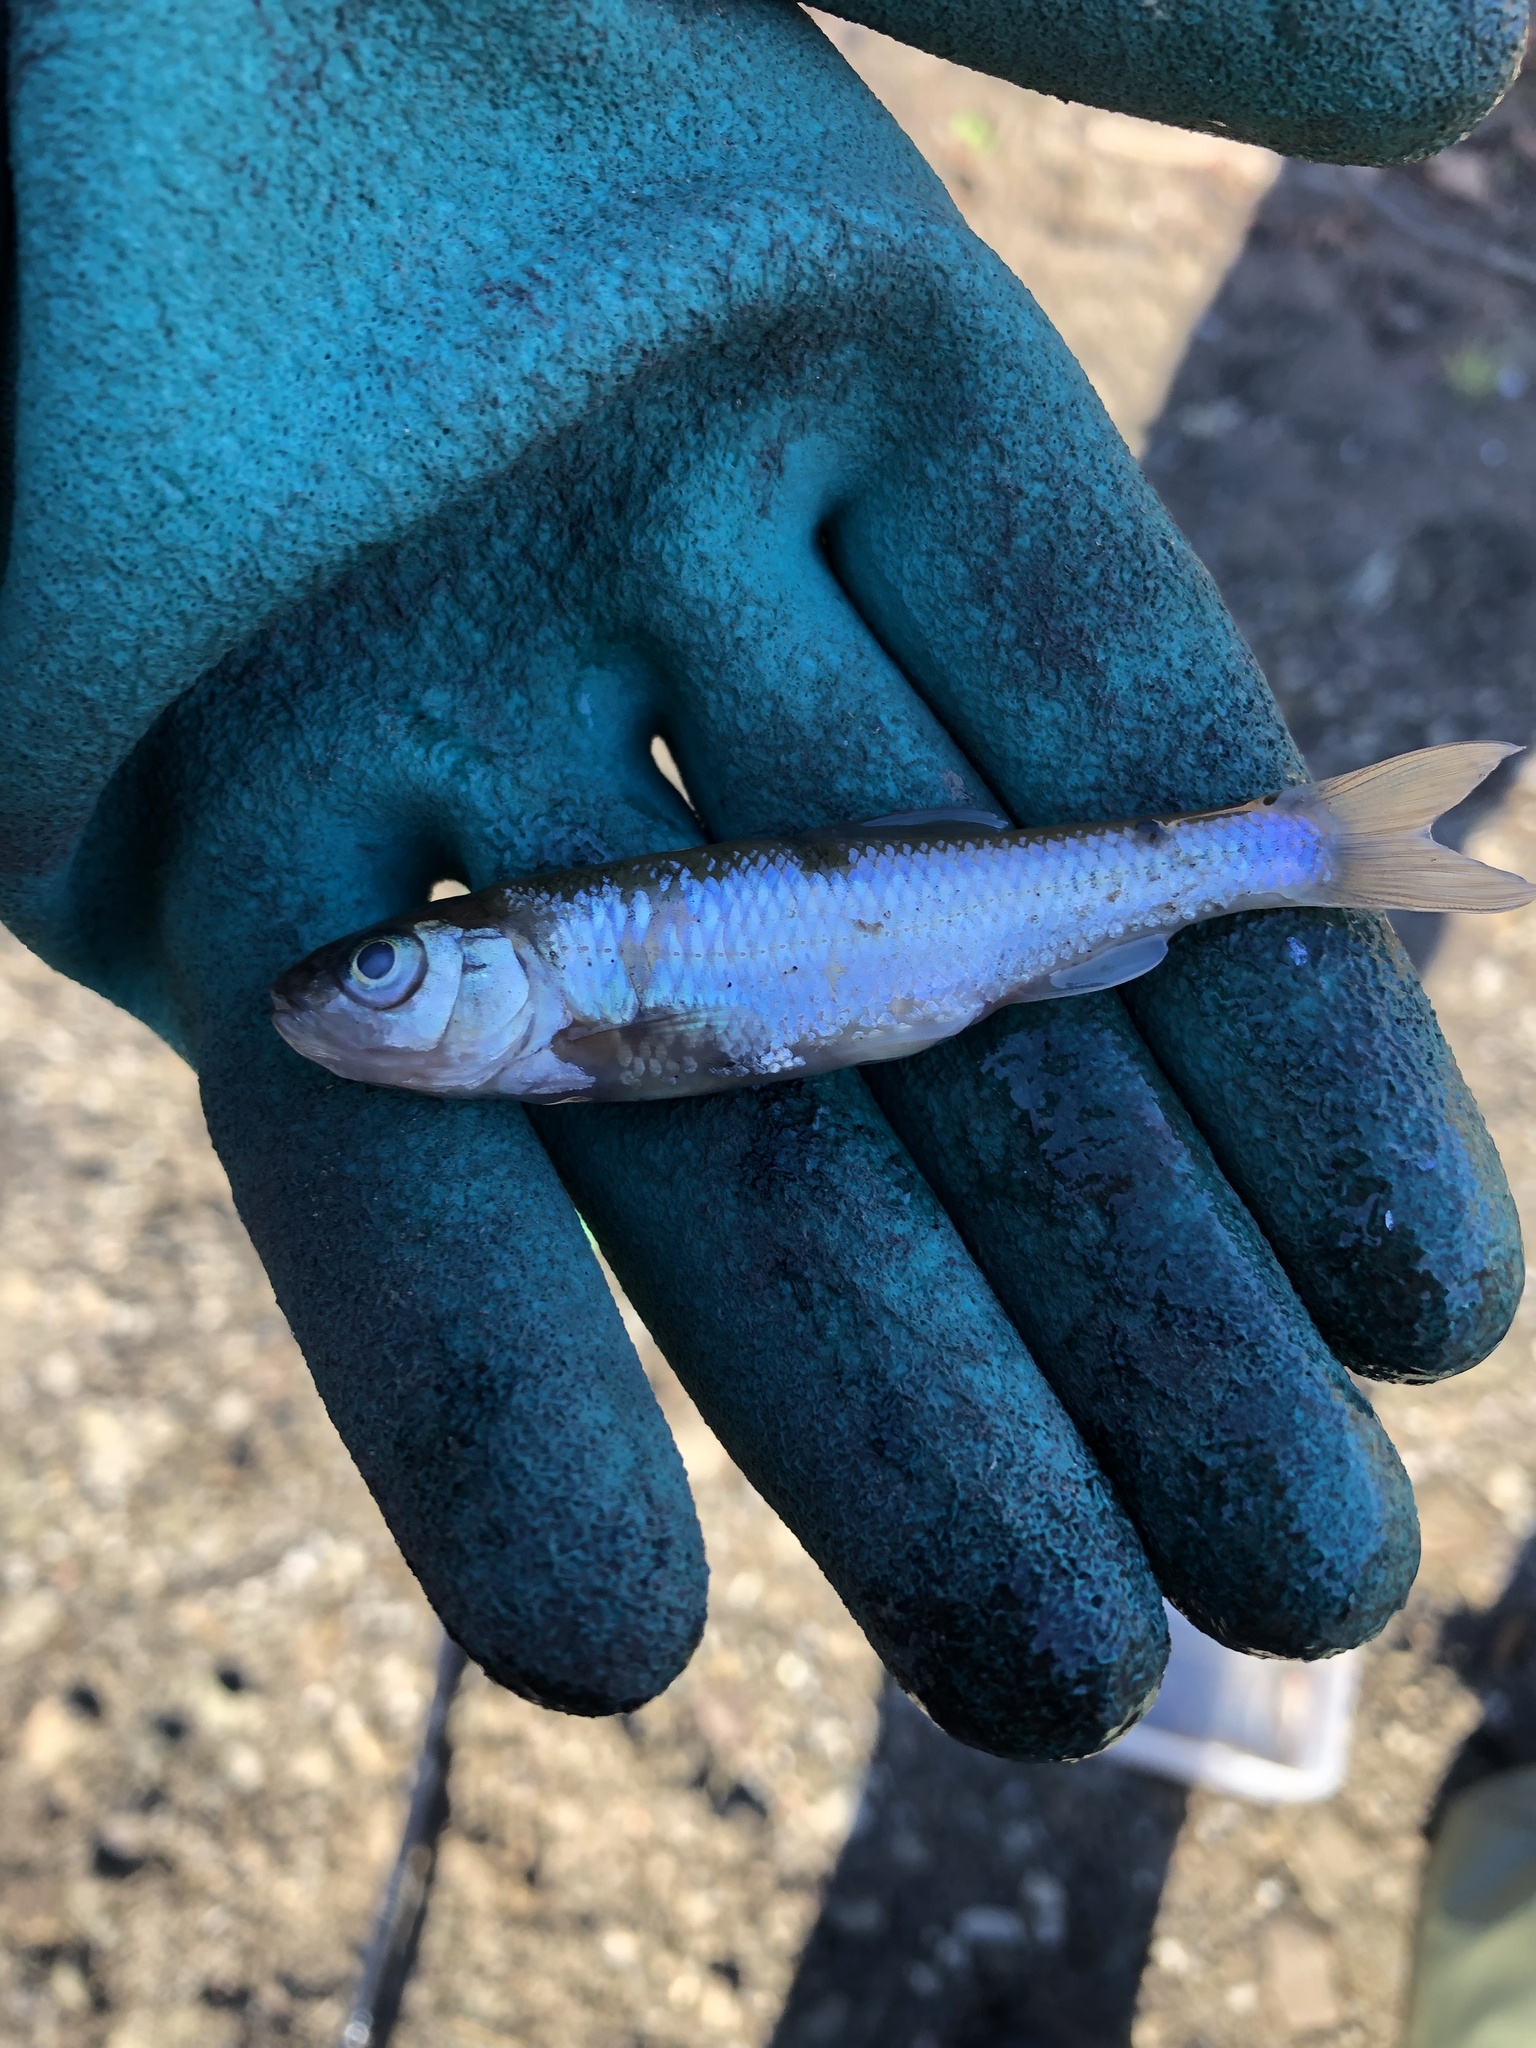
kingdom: Animalia
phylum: Chordata
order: Cypriniformes
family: Cyprinidae
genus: Luxilus
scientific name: Luxilus cornutus
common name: Common shiner
